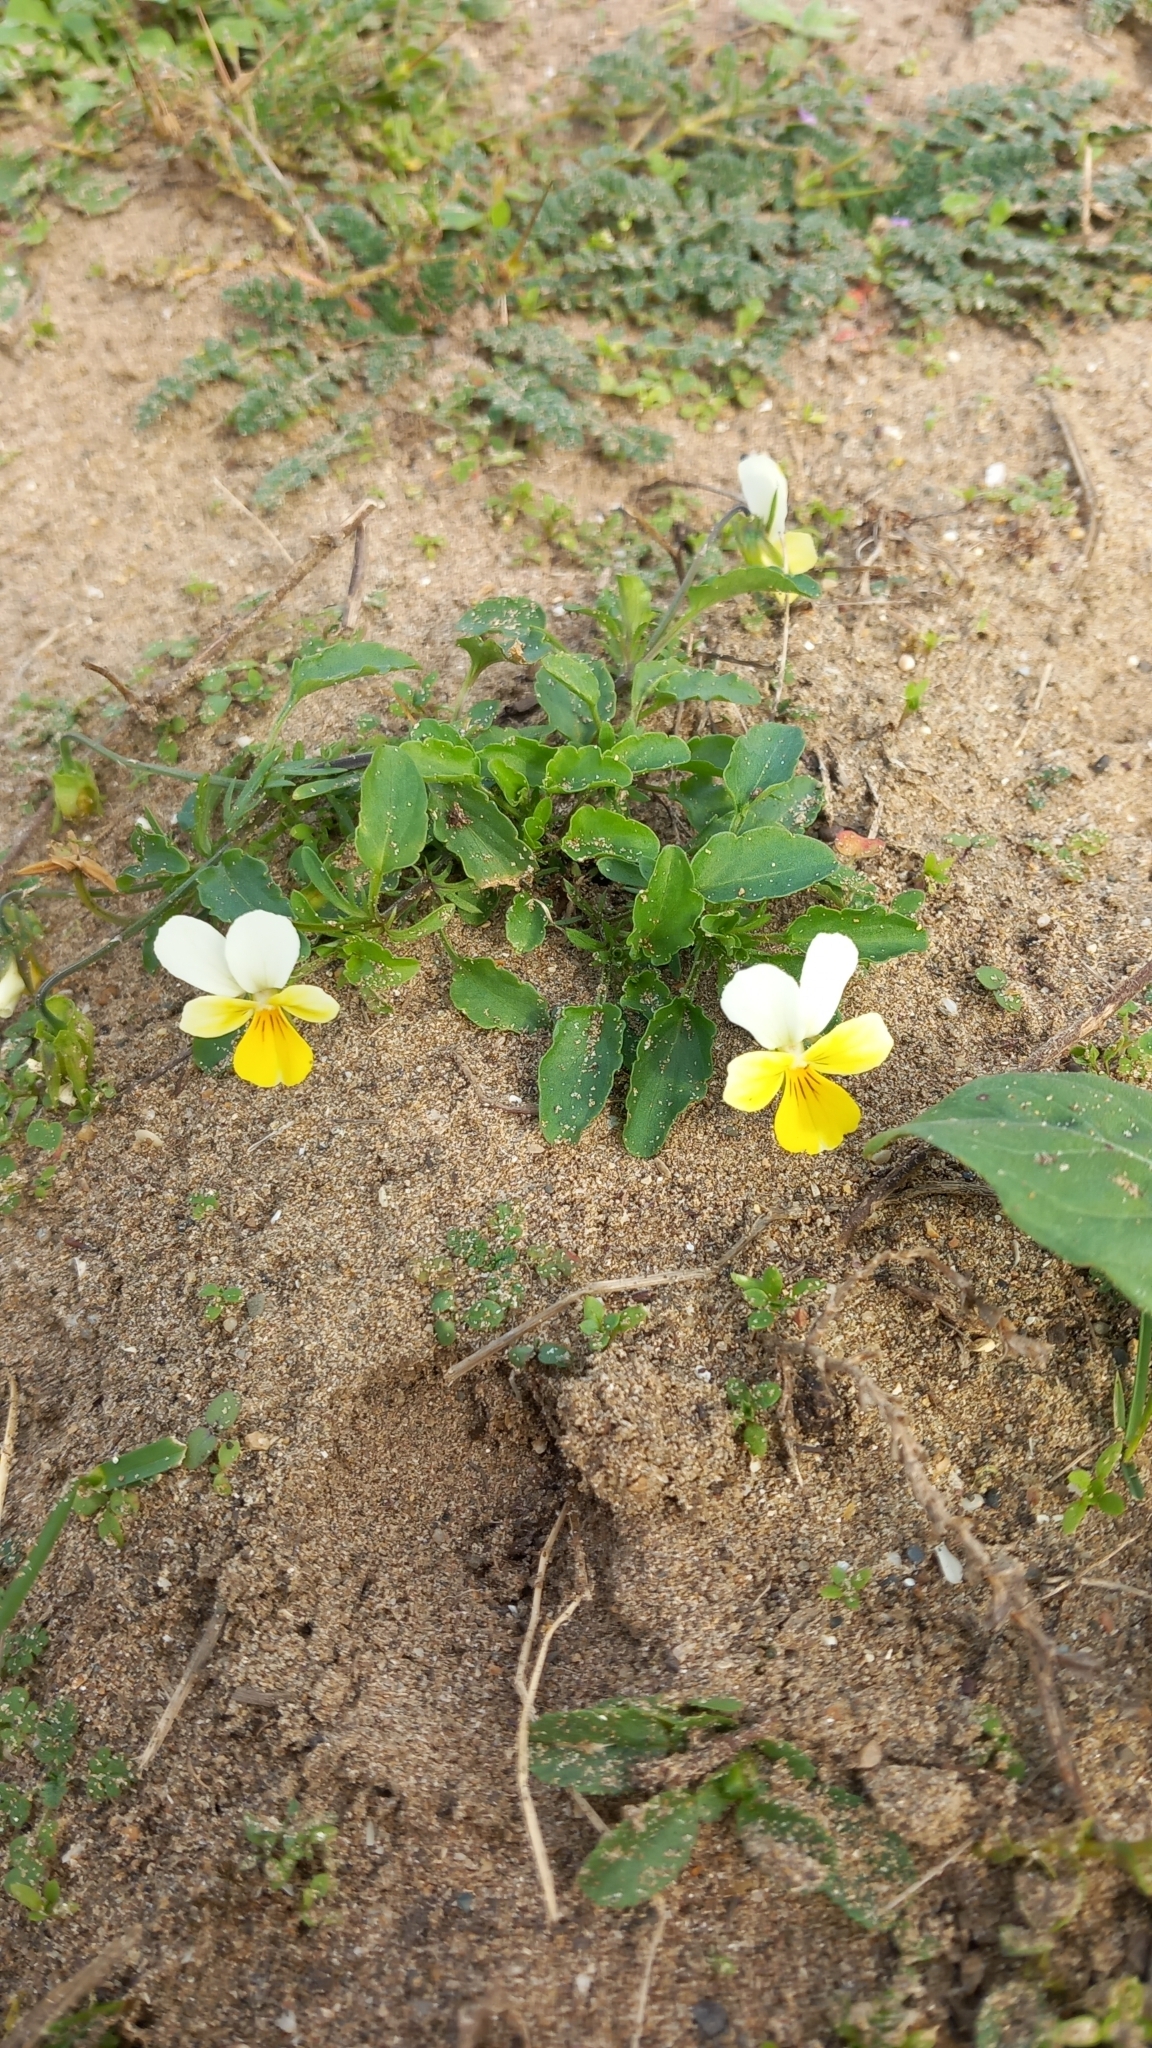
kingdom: Plantae
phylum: Tracheophyta
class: Magnoliopsida
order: Malpighiales
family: Violaceae
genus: Viola
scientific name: Viola tricolor
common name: Pansy
